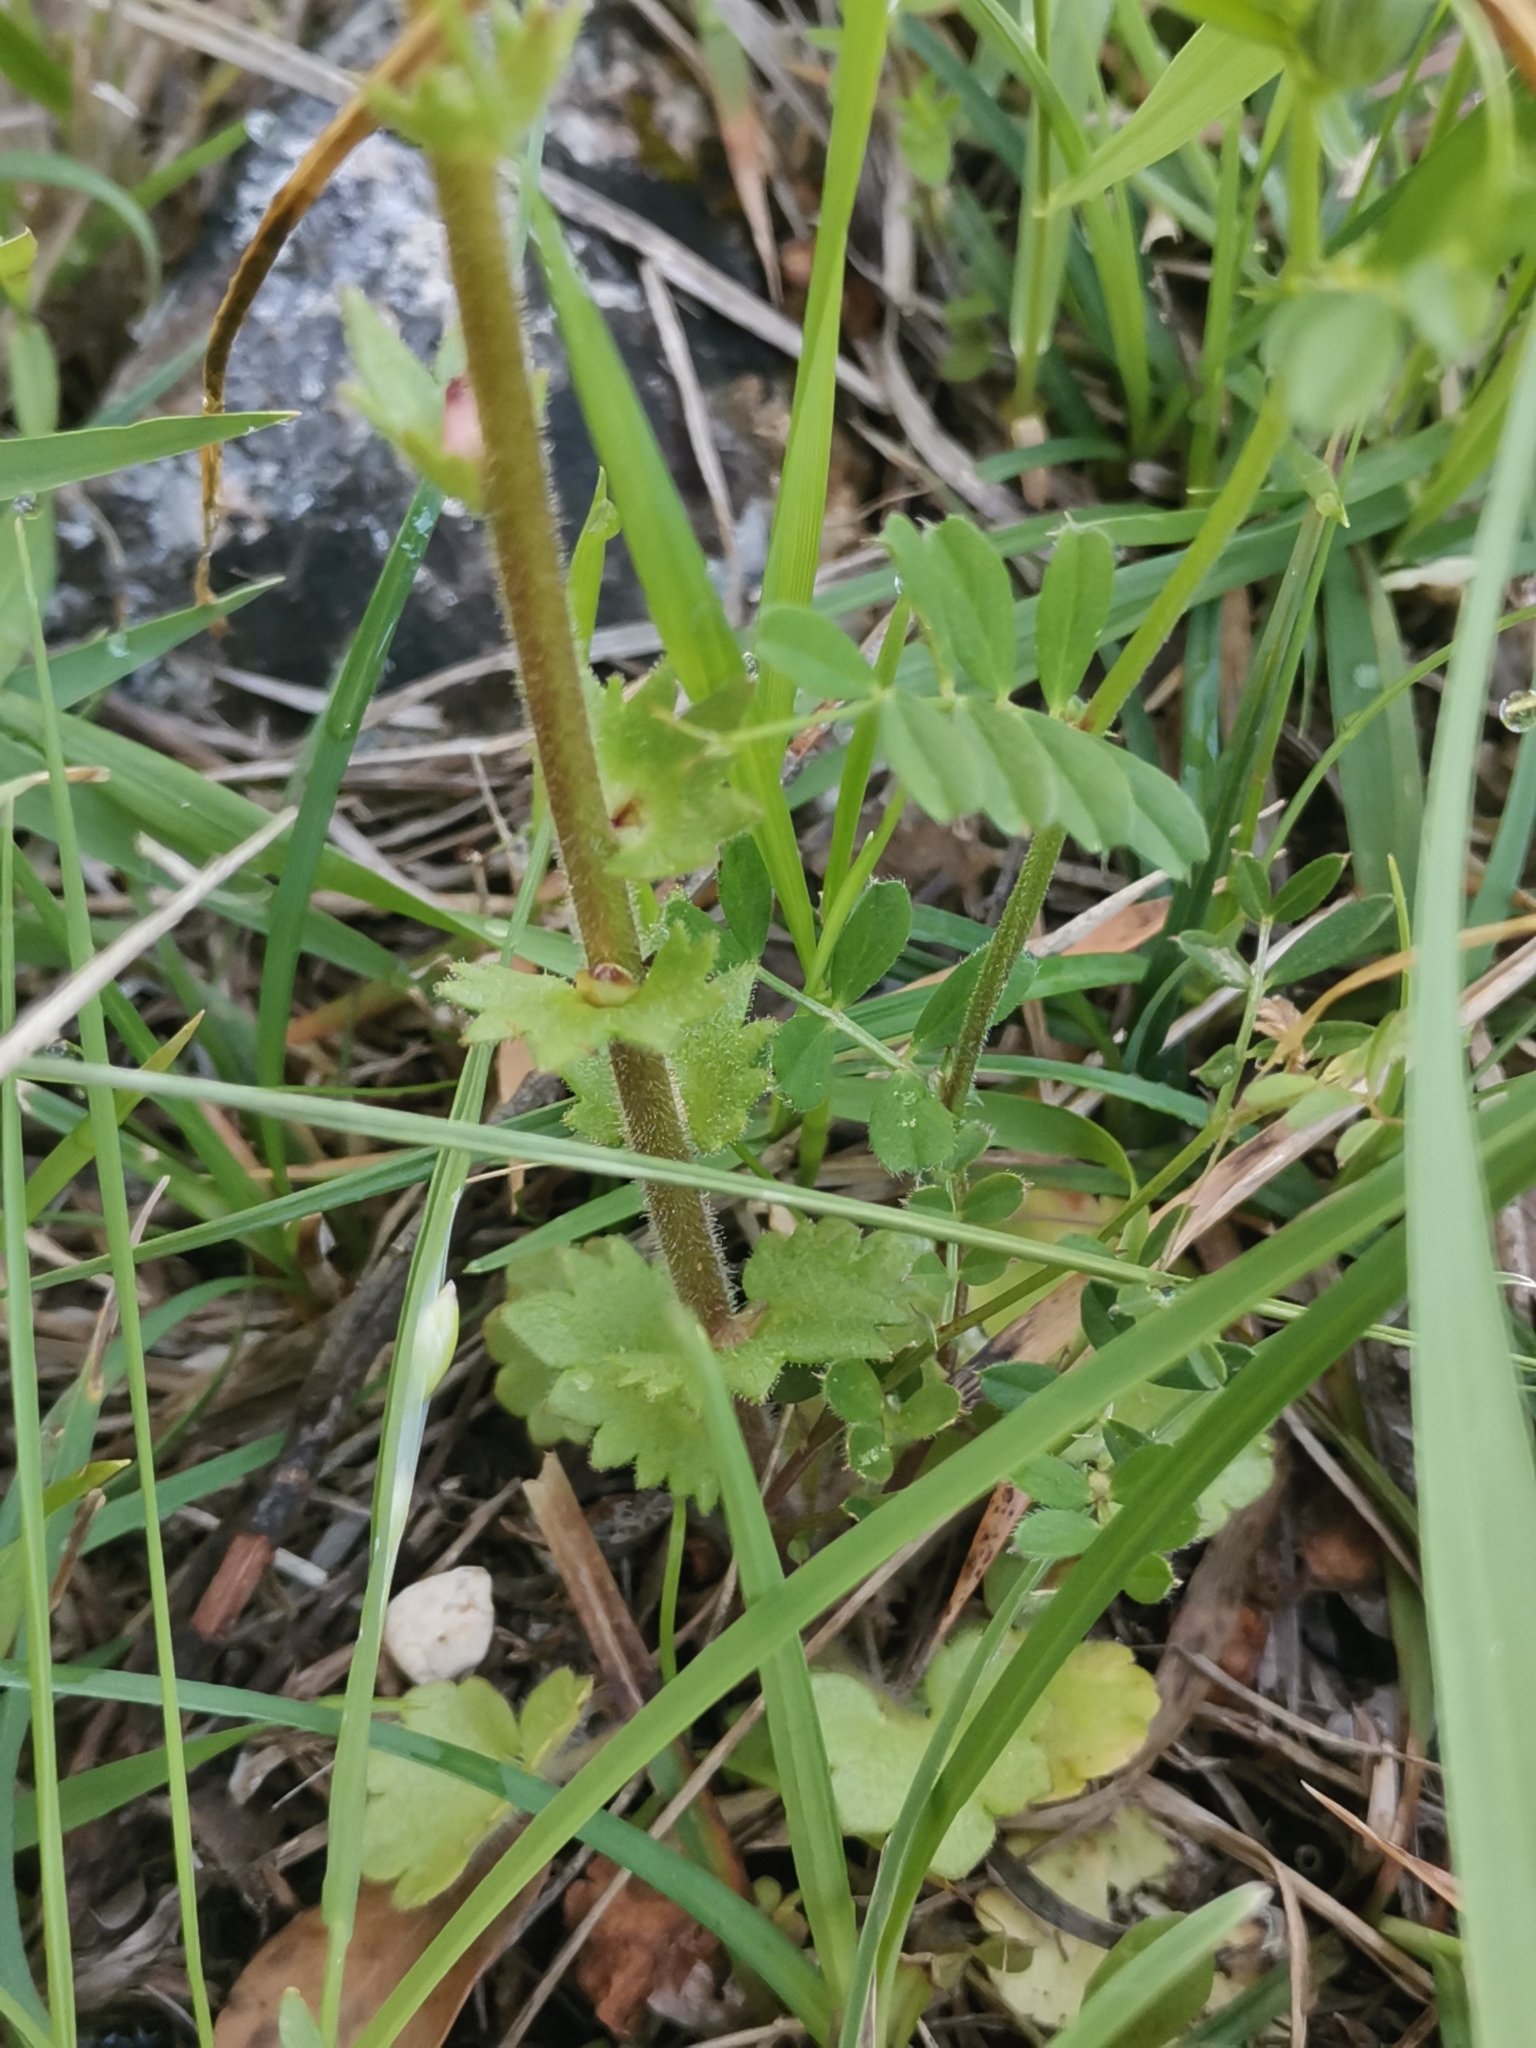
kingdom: Plantae
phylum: Tracheophyta
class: Magnoliopsida
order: Saxifragales
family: Saxifragaceae
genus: Saxifraga
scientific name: Saxifraga bulbifera
